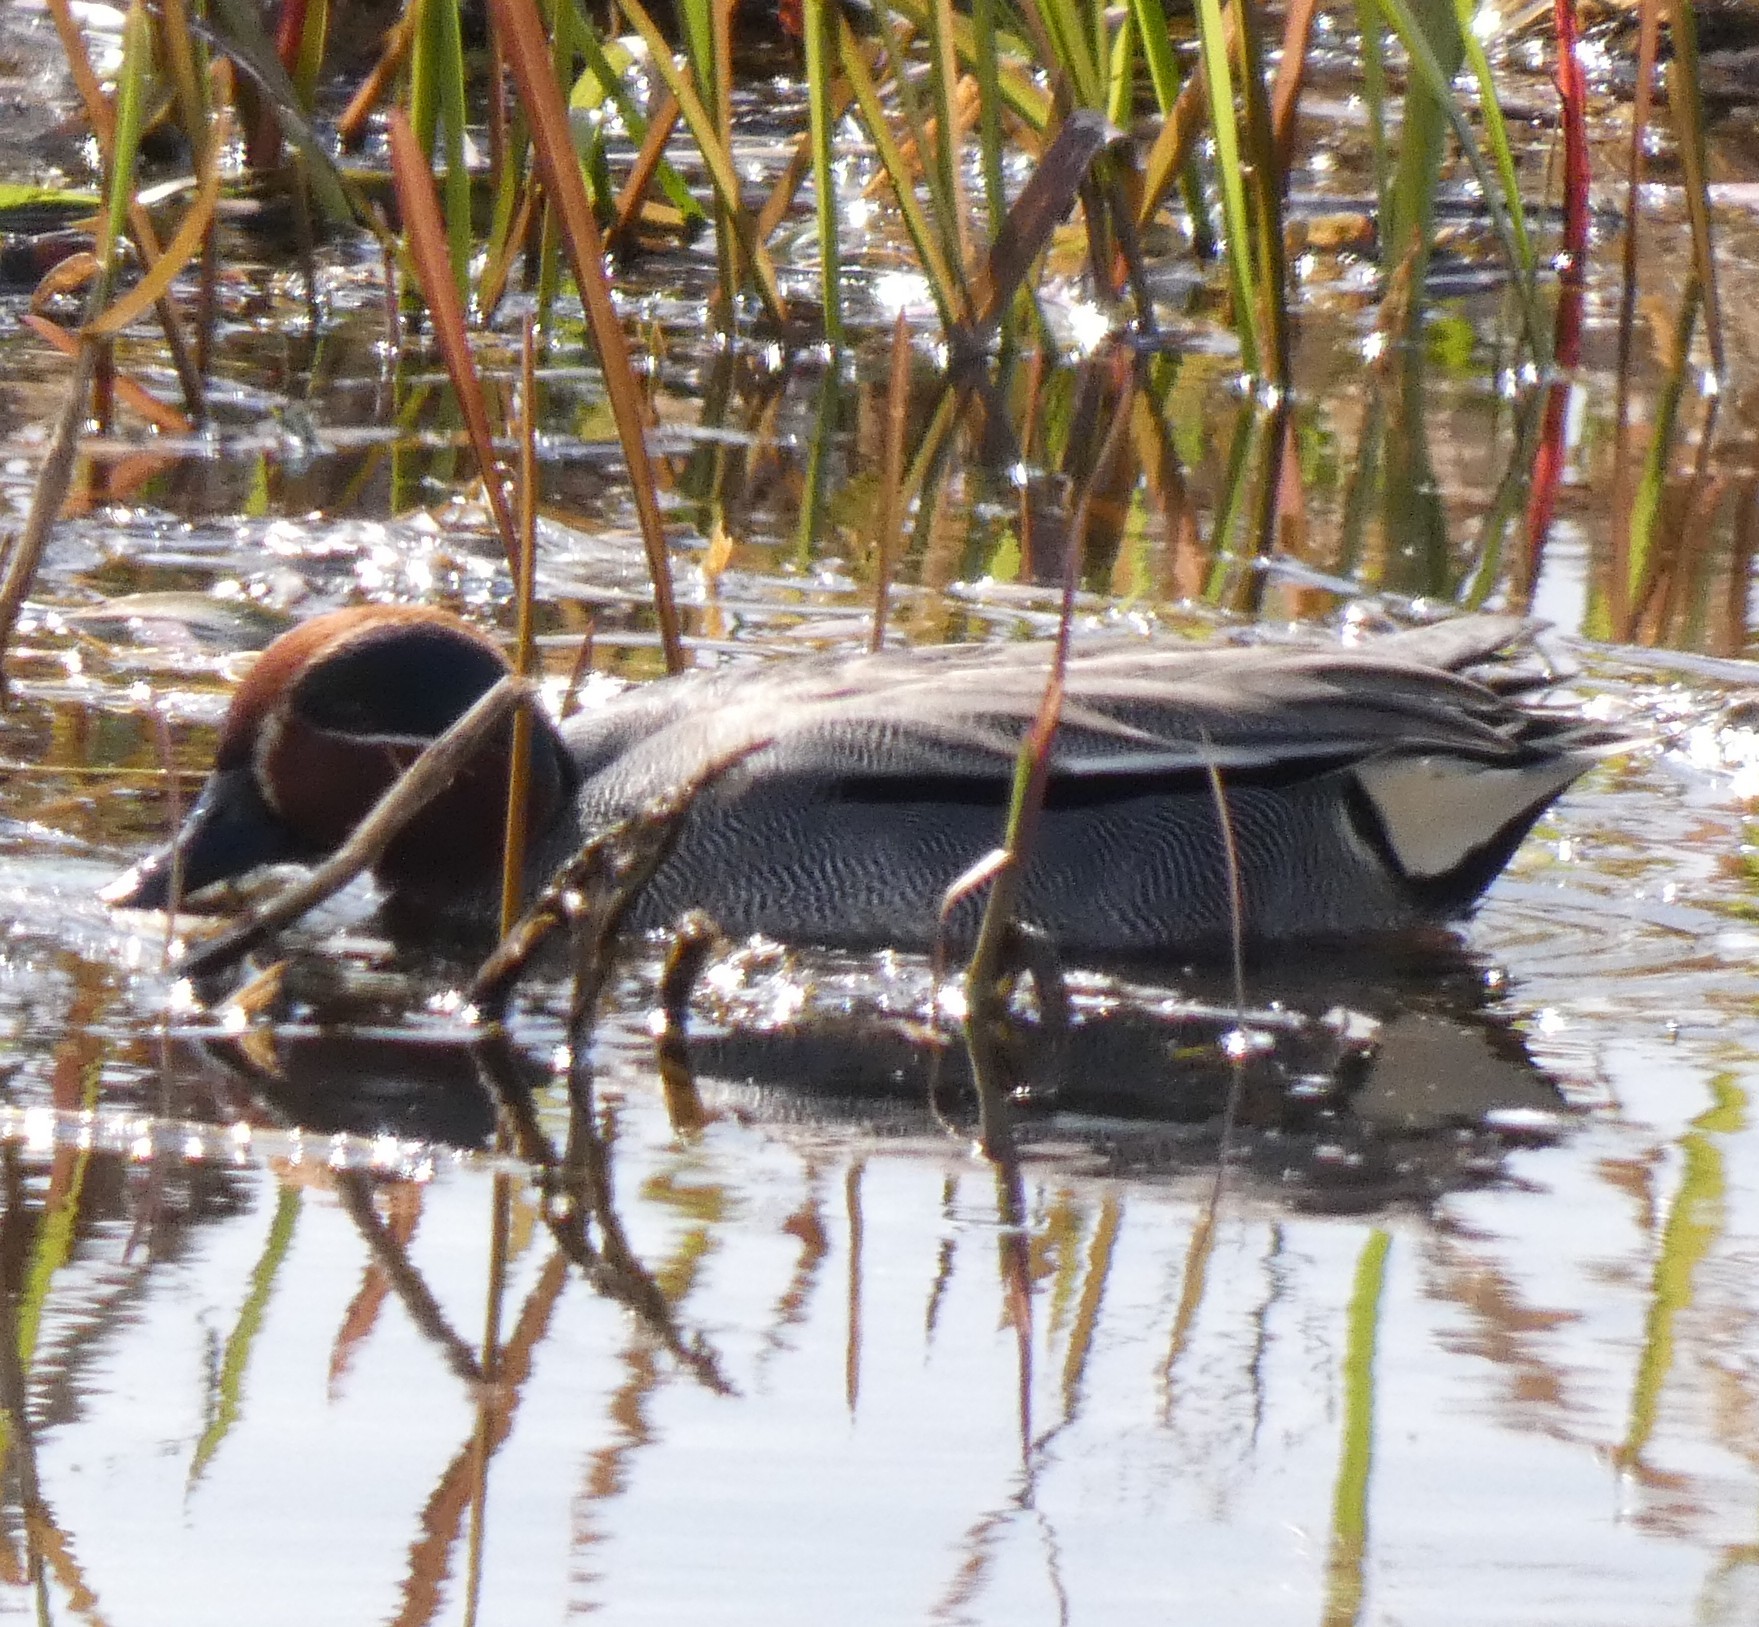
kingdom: Animalia
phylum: Chordata
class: Aves
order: Anseriformes
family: Anatidae
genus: Anas
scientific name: Anas crecca
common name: Eurasian teal
